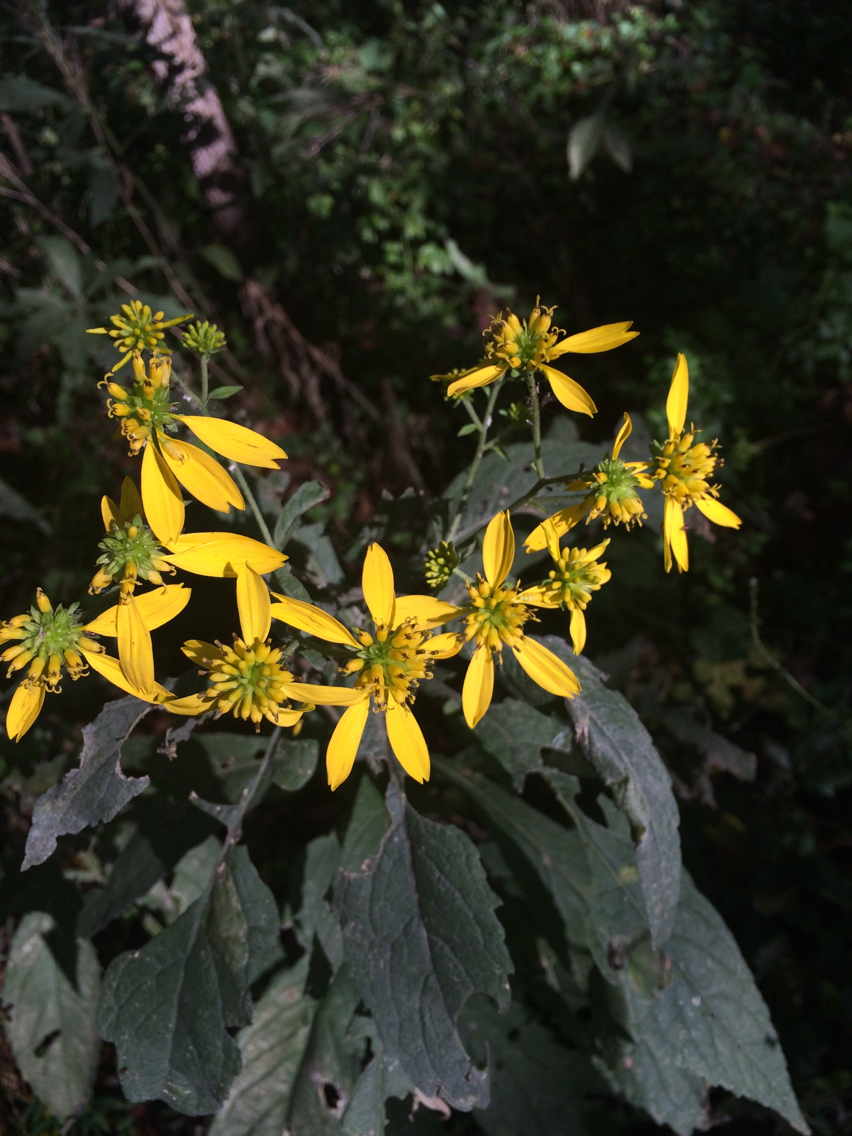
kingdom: Plantae
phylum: Tracheophyta
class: Magnoliopsida
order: Asterales
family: Asteraceae
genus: Verbesina
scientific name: Verbesina alternifolia
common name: Wingstem
